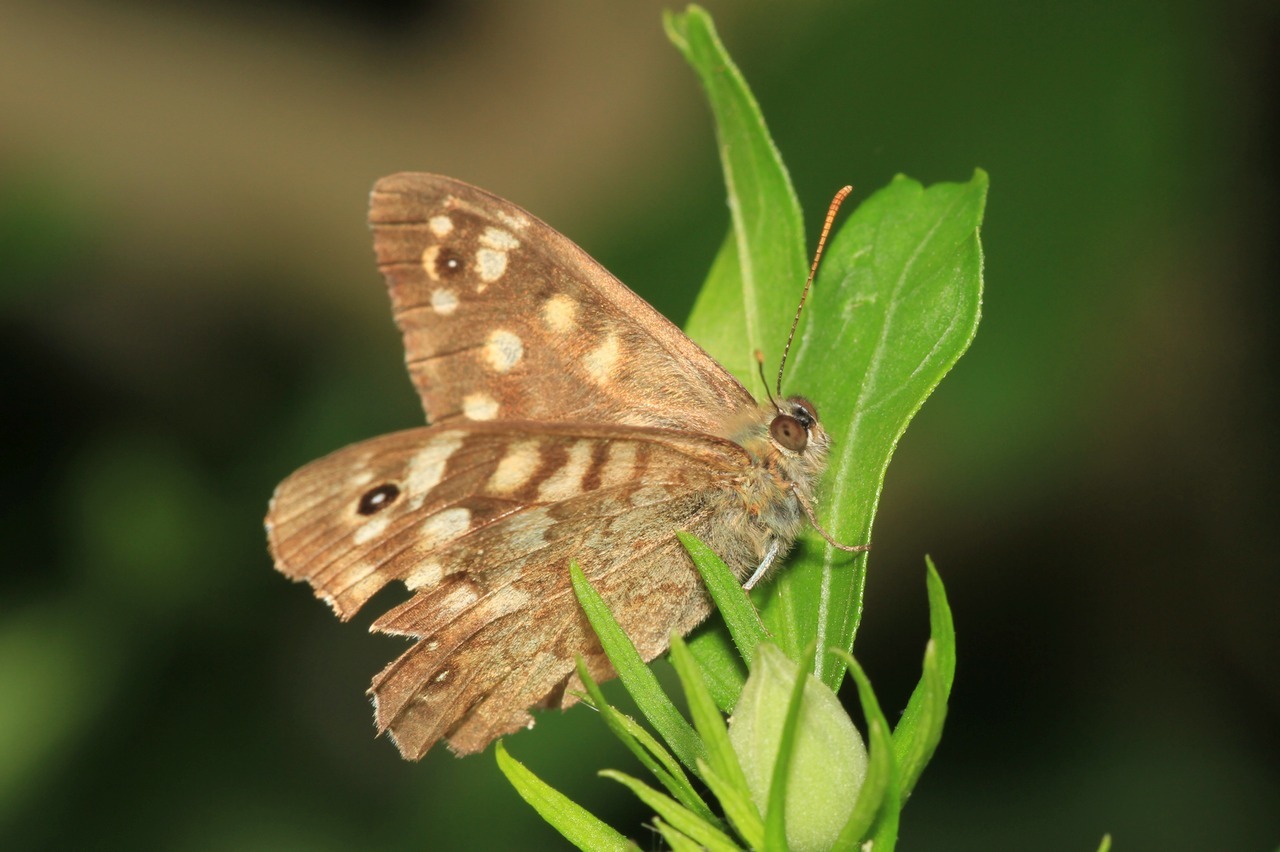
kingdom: Animalia
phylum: Arthropoda
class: Insecta
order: Lepidoptera
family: Nymphalidae
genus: Pararge
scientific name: Pararge aegeria
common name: Speckled wood
